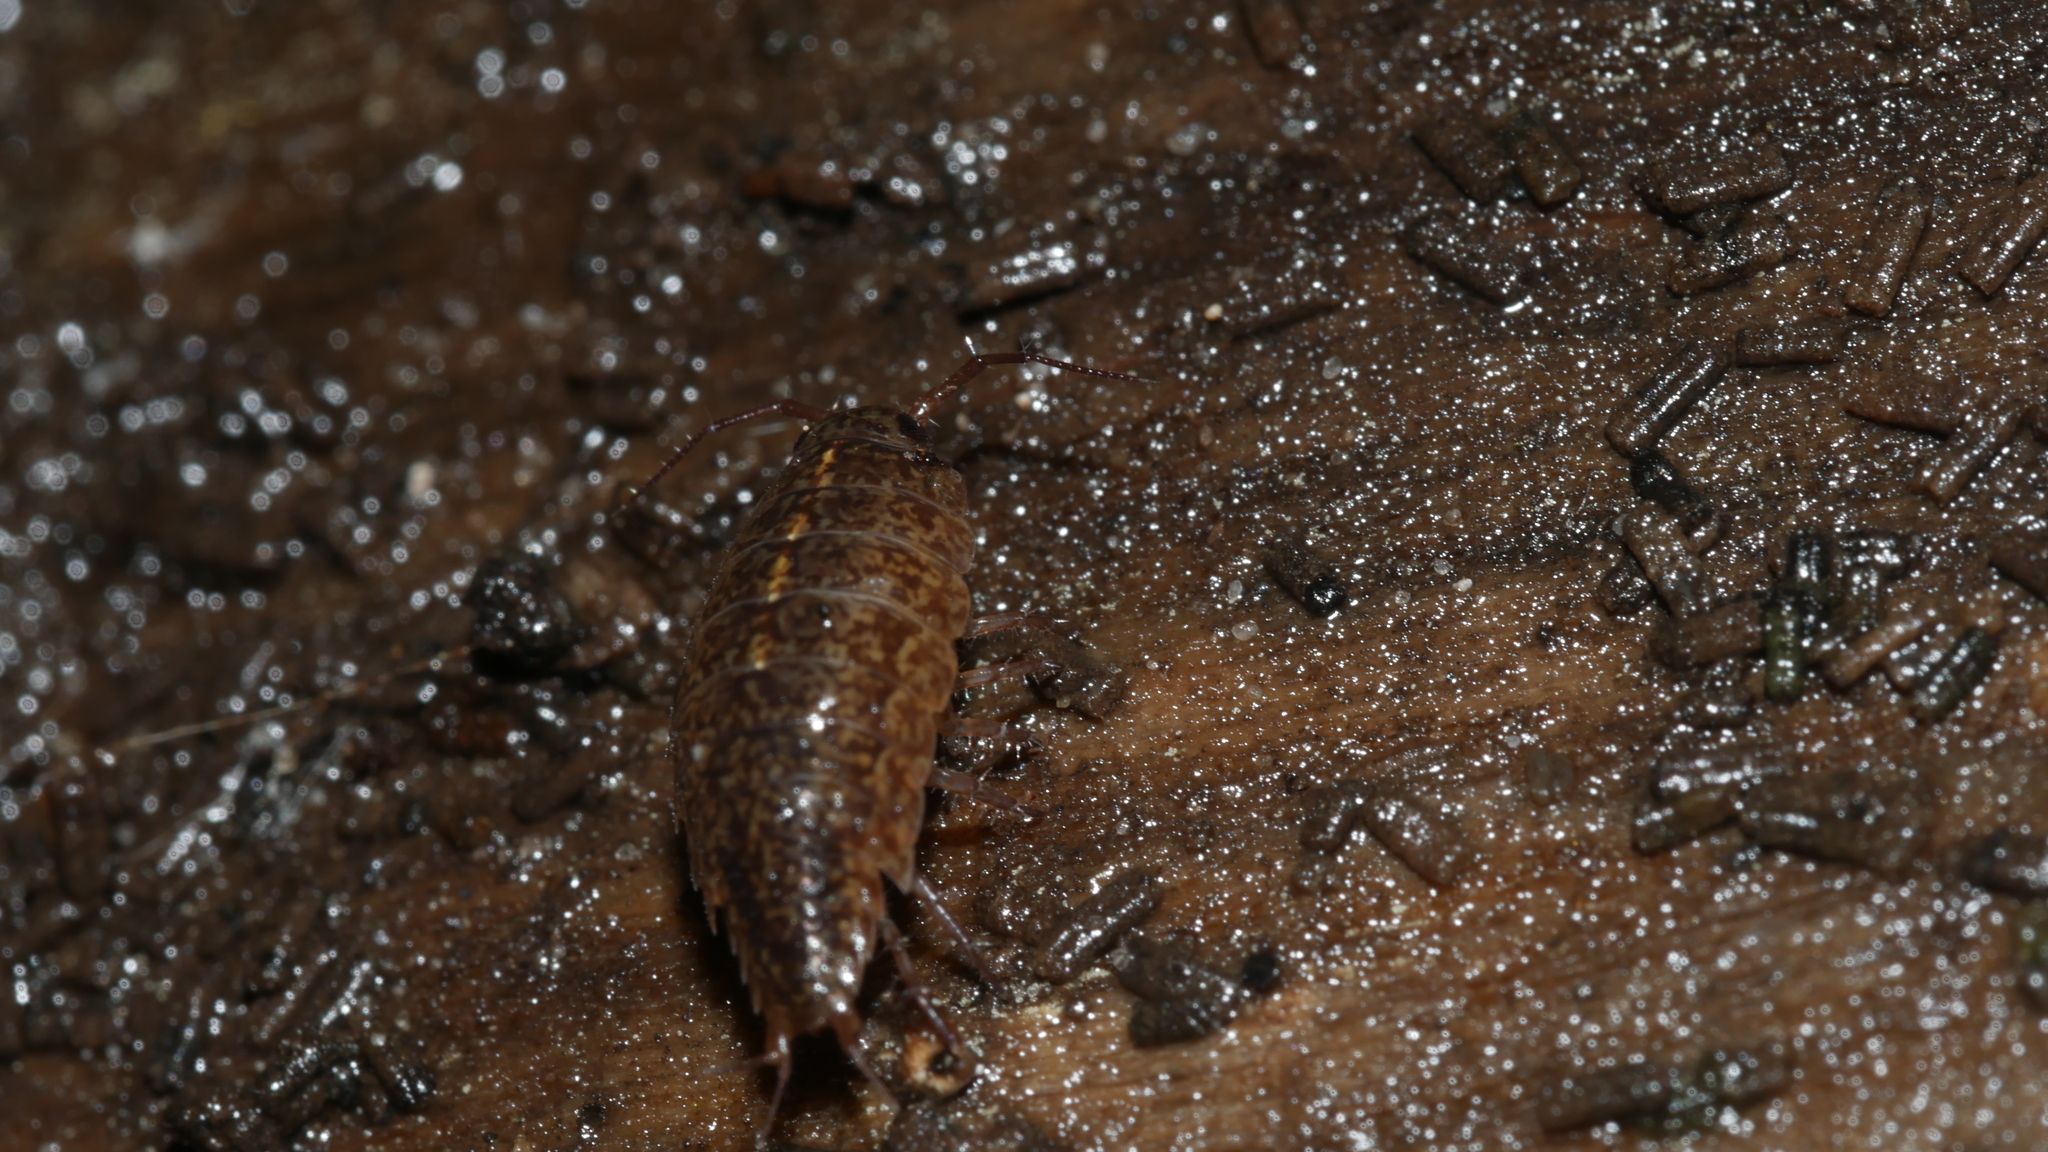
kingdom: Animalia
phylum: Arthropoda
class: Malacostraca
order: Isopoda
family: Ligiidae
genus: Ligidium
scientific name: Ligidium elrodii
